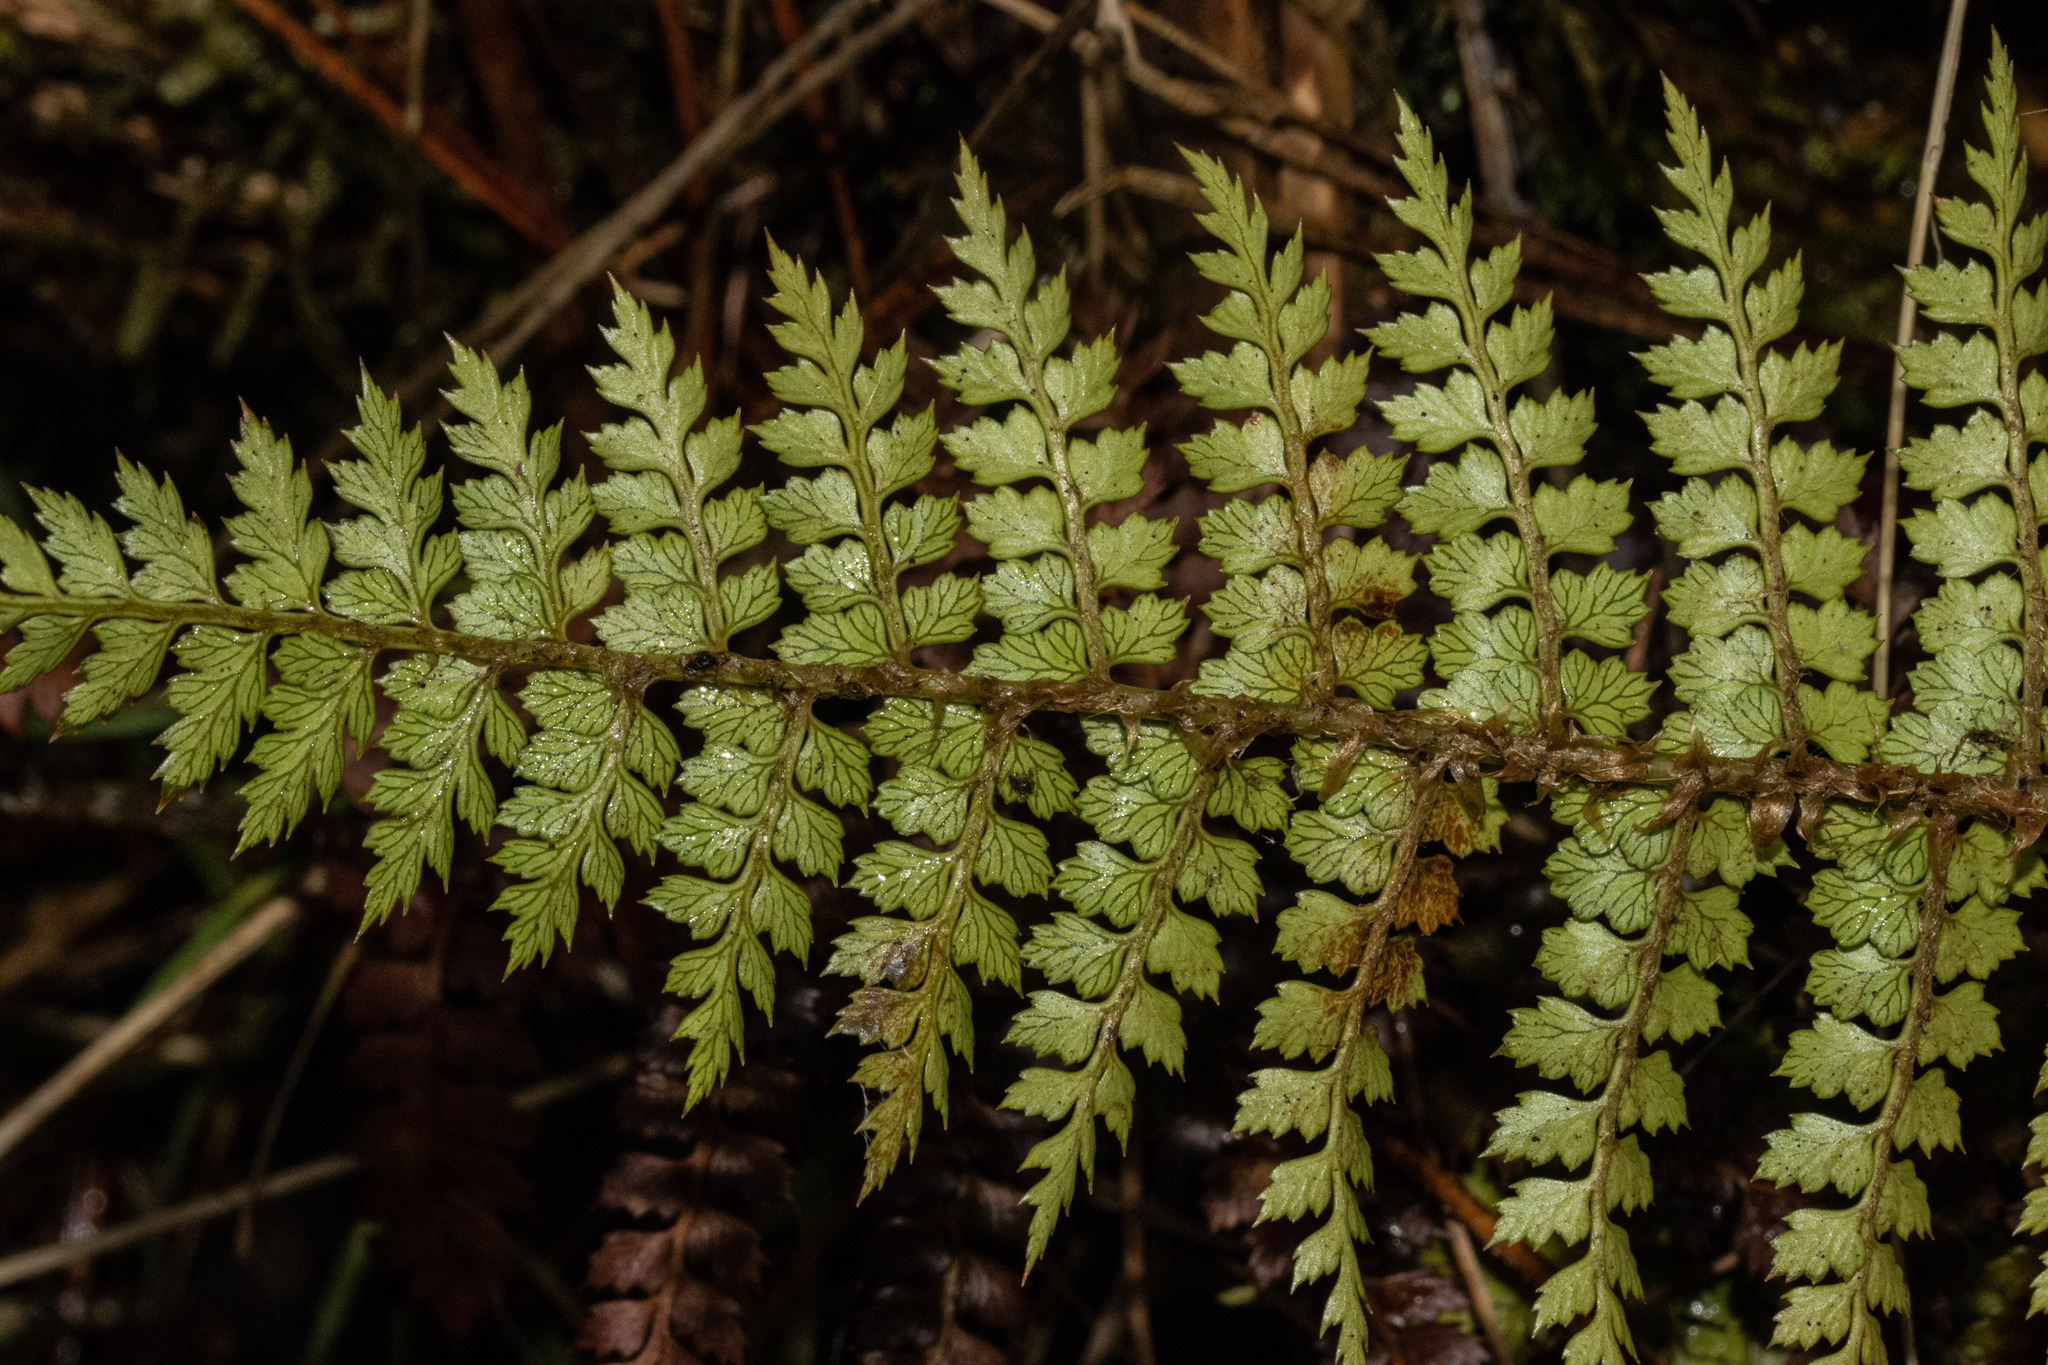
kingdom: Plantae
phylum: Tracheophyta
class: Polypodiopsida
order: Polypodiales
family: Dryopteridaceae
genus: Polystichum
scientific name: Polystichum vestitum
